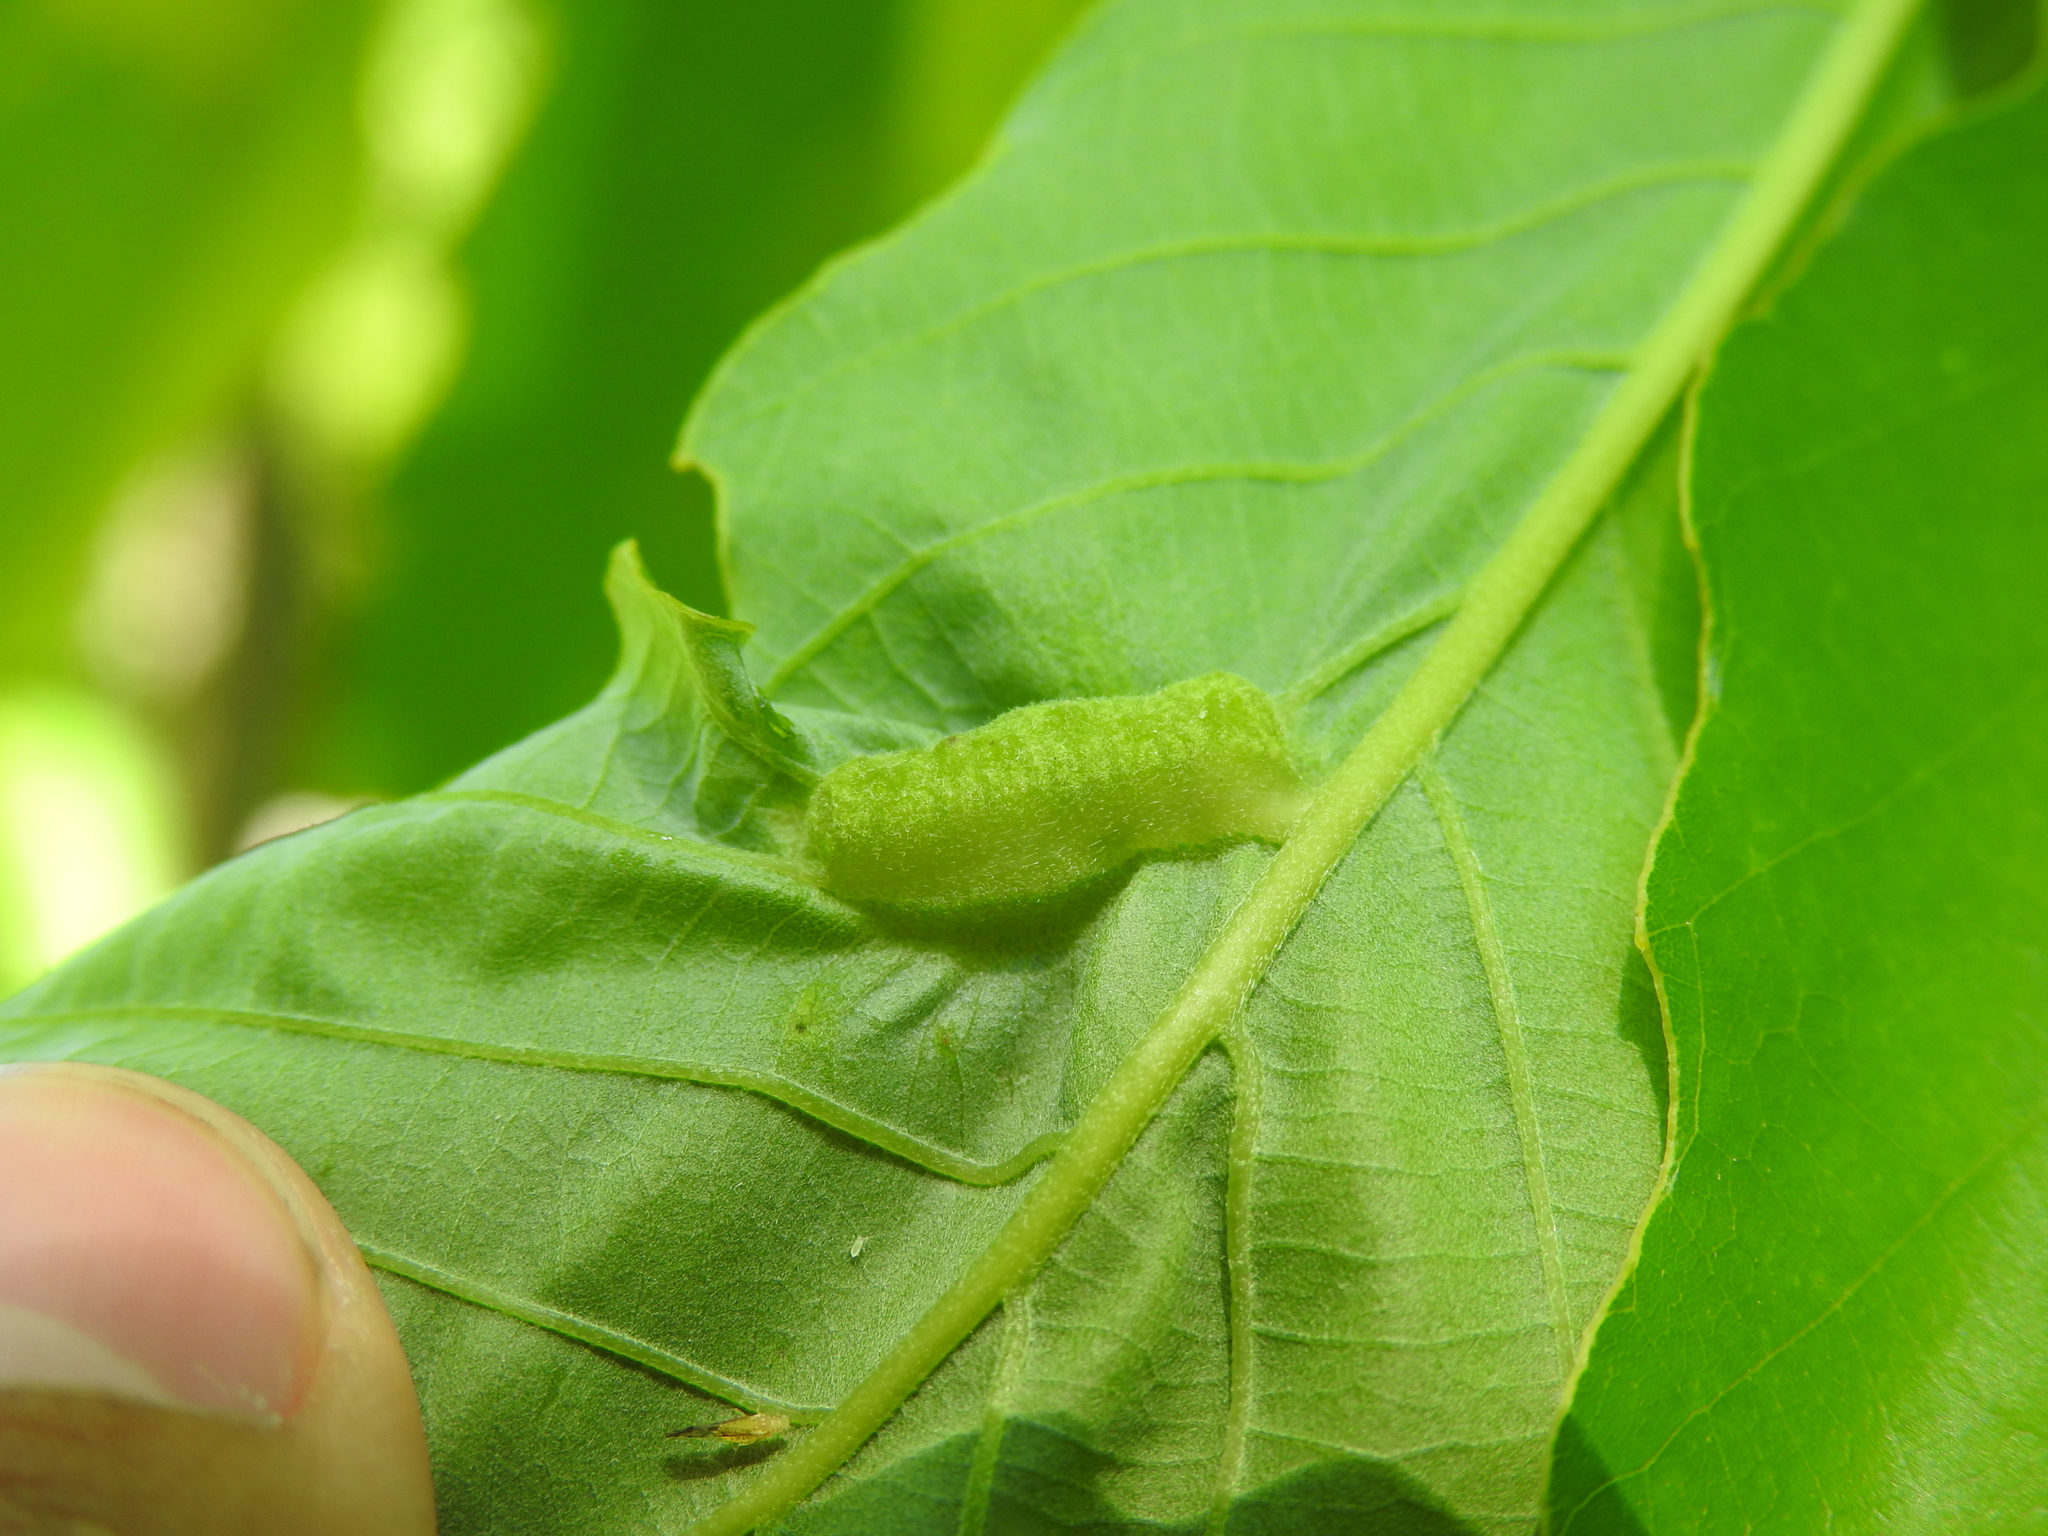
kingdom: Animalia
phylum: Arthropoda
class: Insecta
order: Hymenoptera
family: Cynipidae
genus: Neuroterus
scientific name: Neuroterus quercusirregularis
